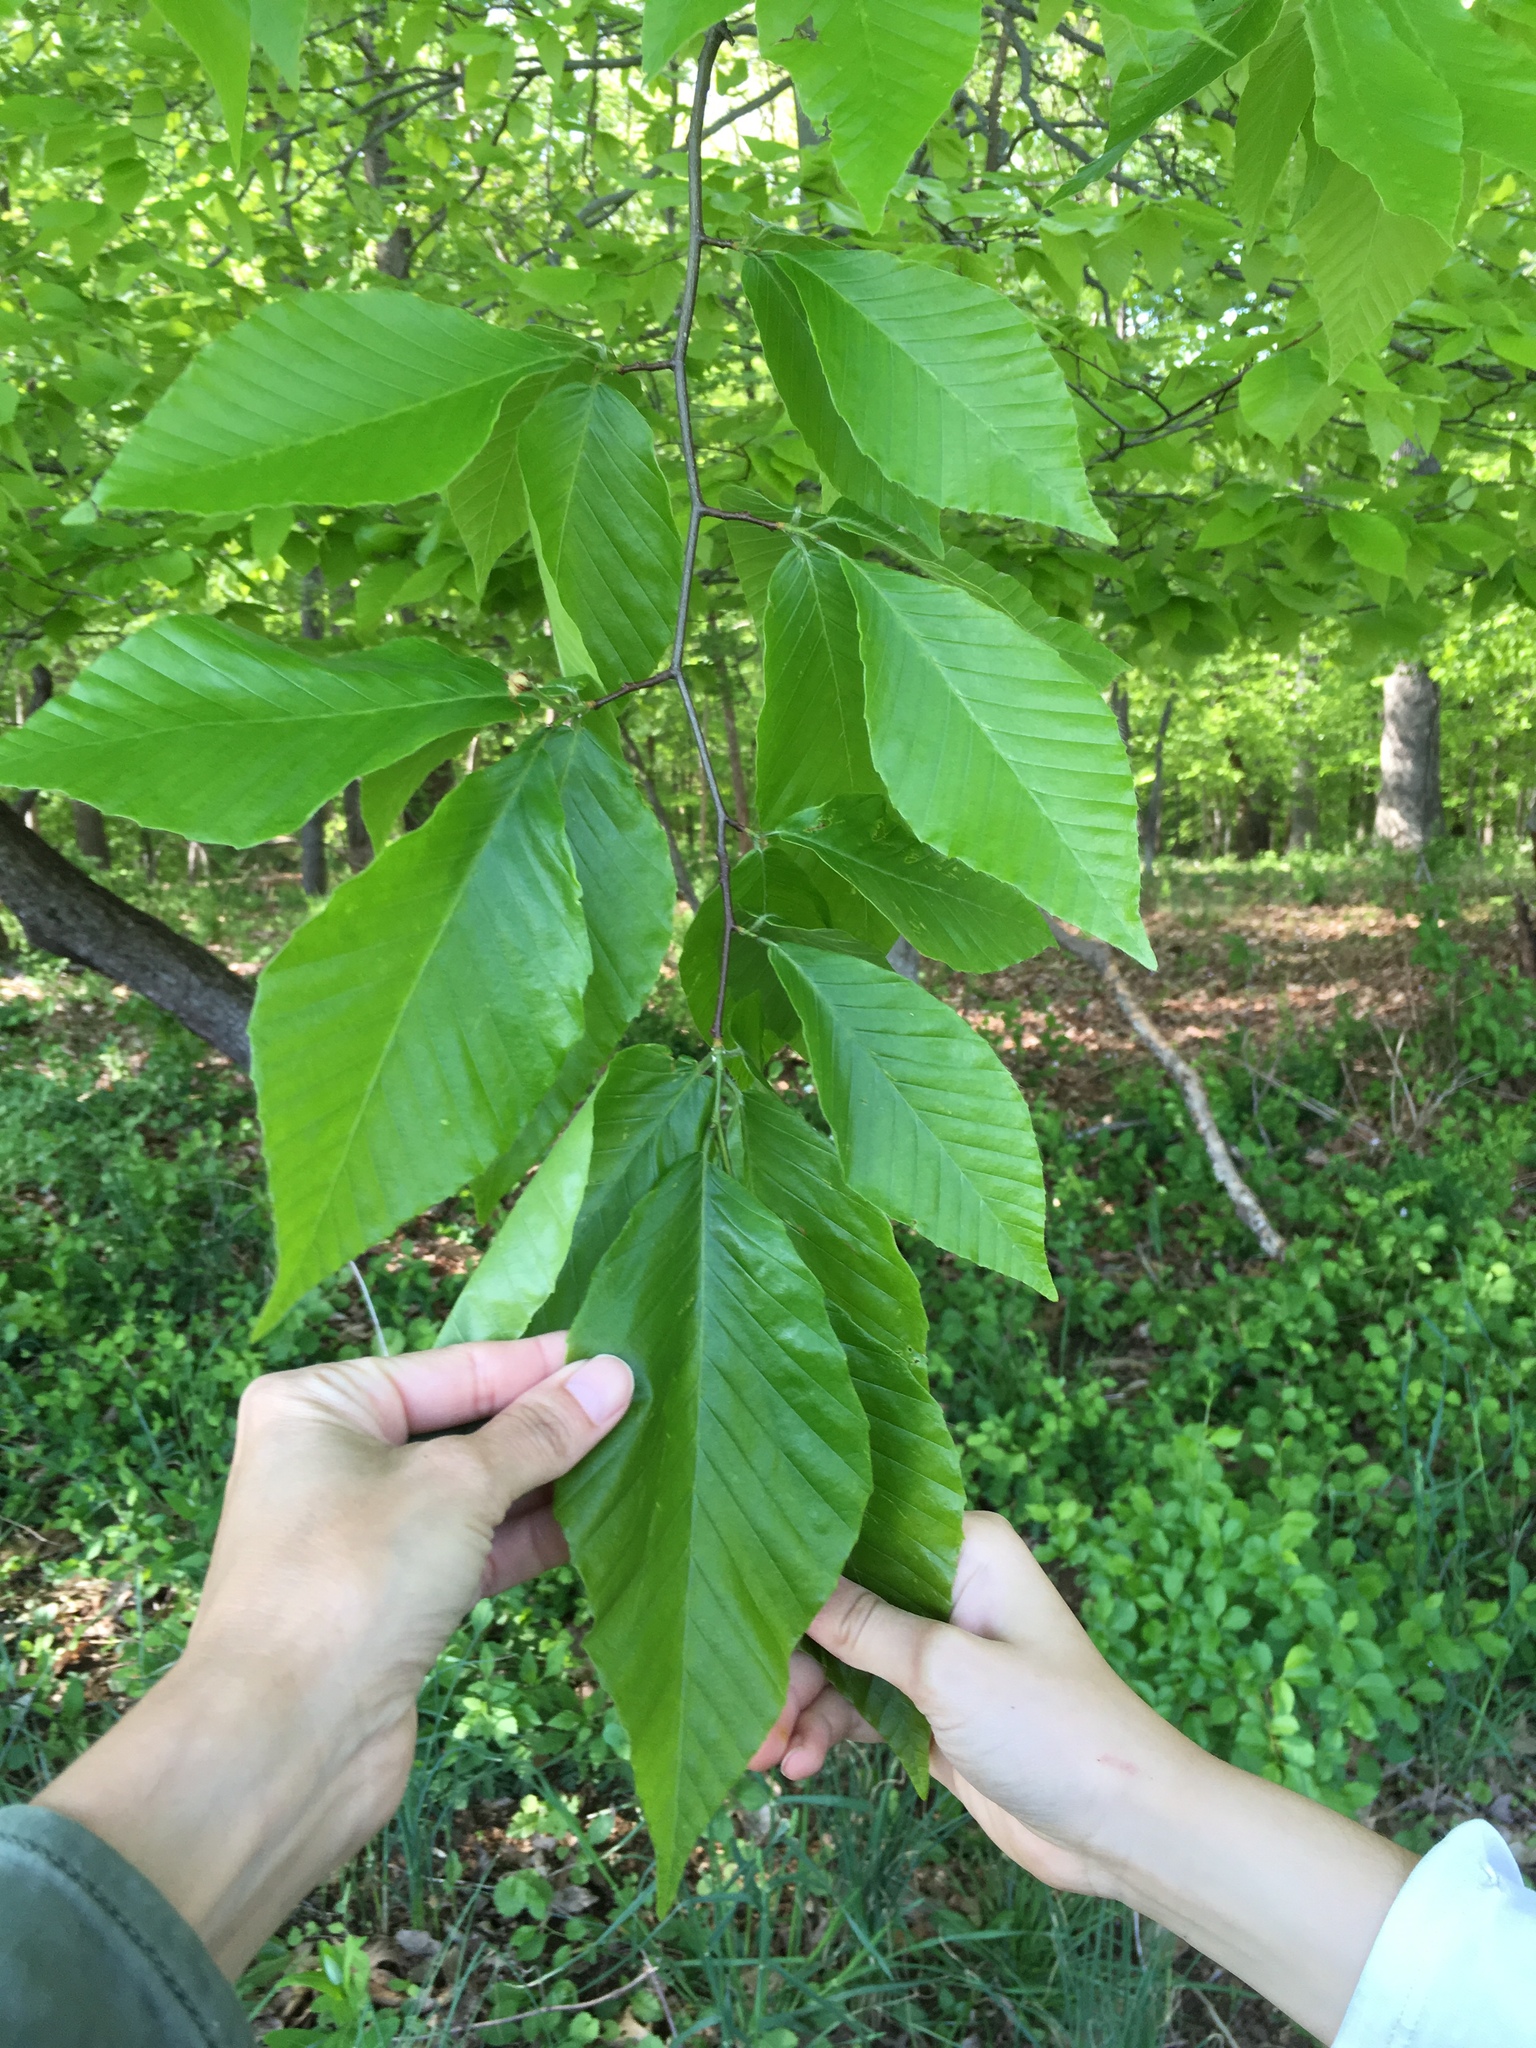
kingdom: Plantae
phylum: Tracheophyta
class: Magnoliopsida
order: Fagales
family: Fagaceae
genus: Fagus
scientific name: Fagus grandifolia
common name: American beech
